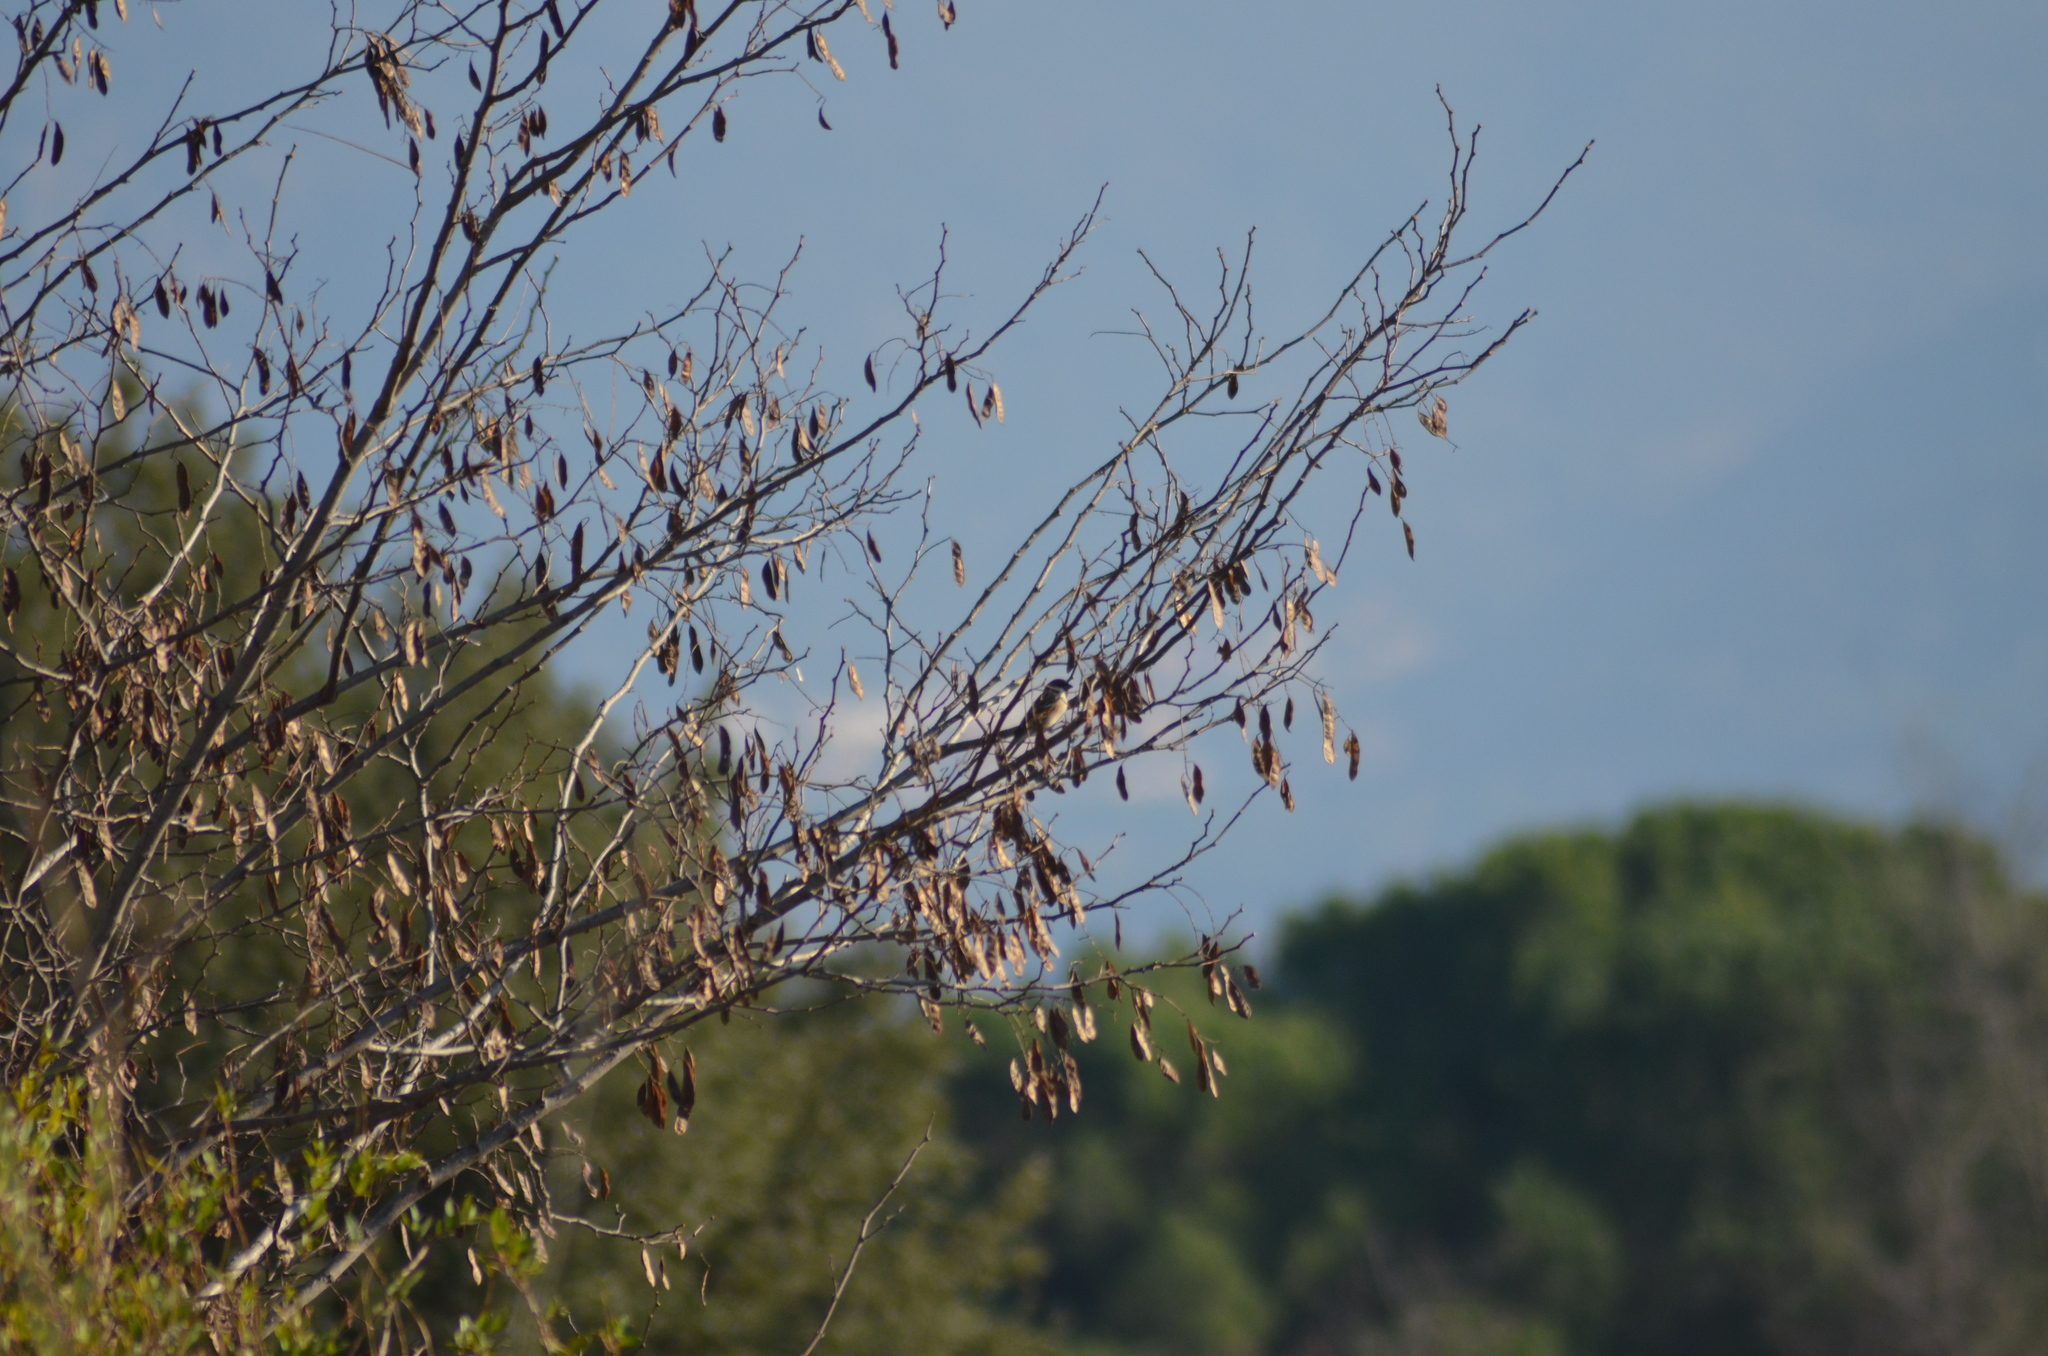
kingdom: Animalia
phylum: Chordata
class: Aves
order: Passeriformes
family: Passeridae
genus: Passer
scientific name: Passer montanus
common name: Eurasian tree sparrow
